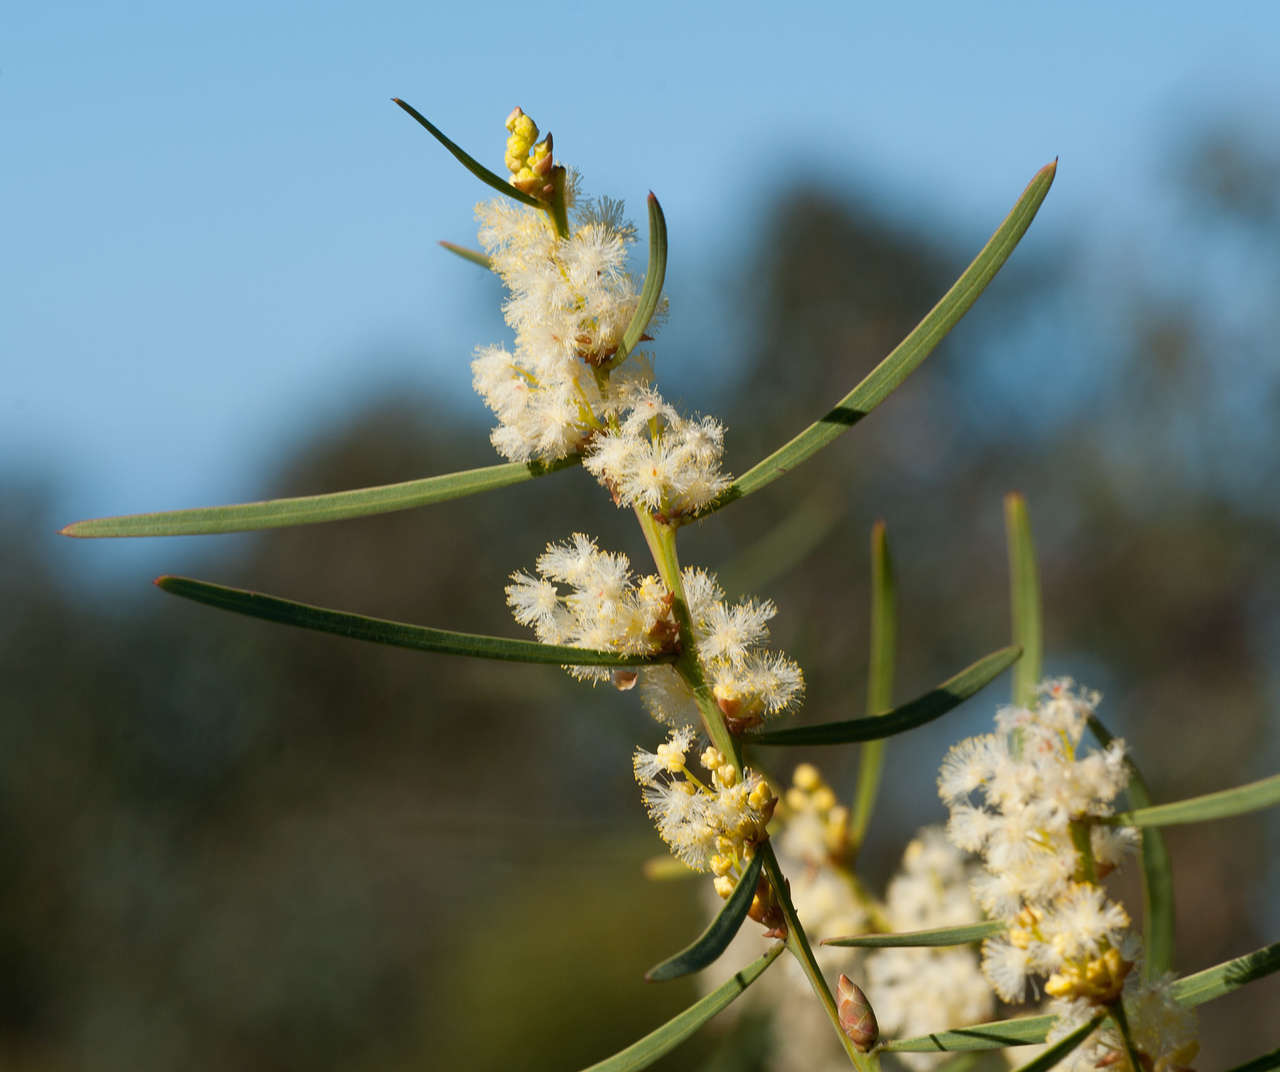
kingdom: Plantae
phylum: Tracheophyta
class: Magnoliopsida
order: Fabales
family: Fabaceae
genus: Acacia
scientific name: Acacia suaveolens
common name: Sweet acacia
